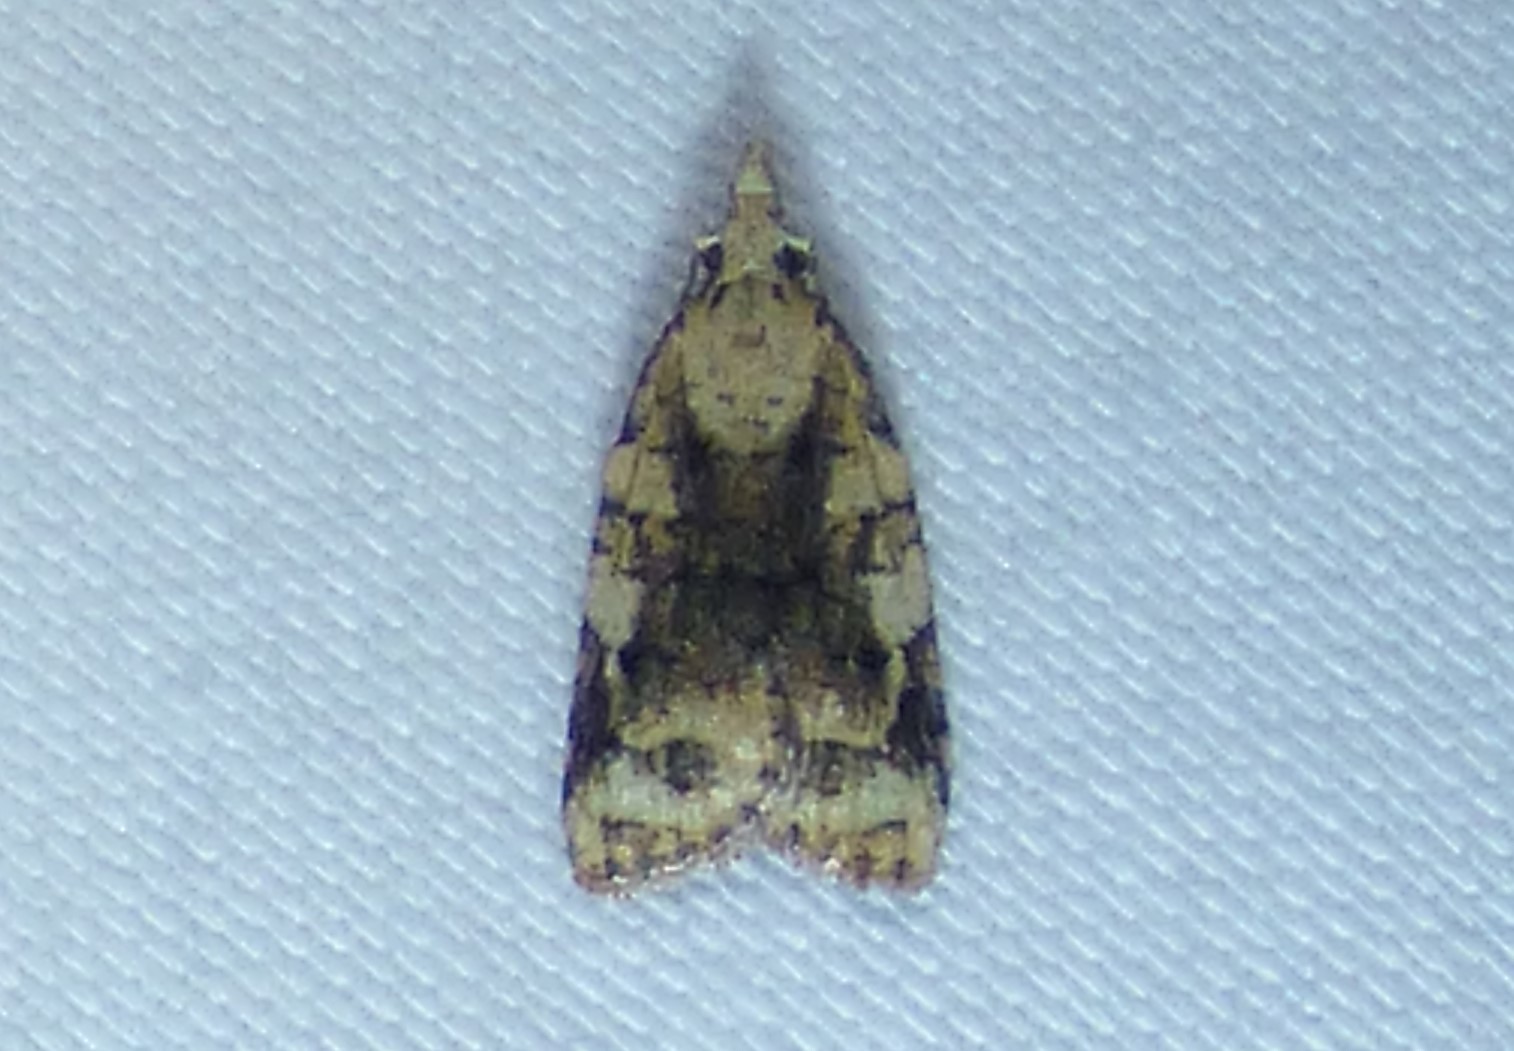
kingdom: Animalia
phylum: Arthropoda
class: Insecta
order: Lepidoptera
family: Tortricidae
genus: Platynota
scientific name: Platynota exasperatana
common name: Exasperating platynota moth
